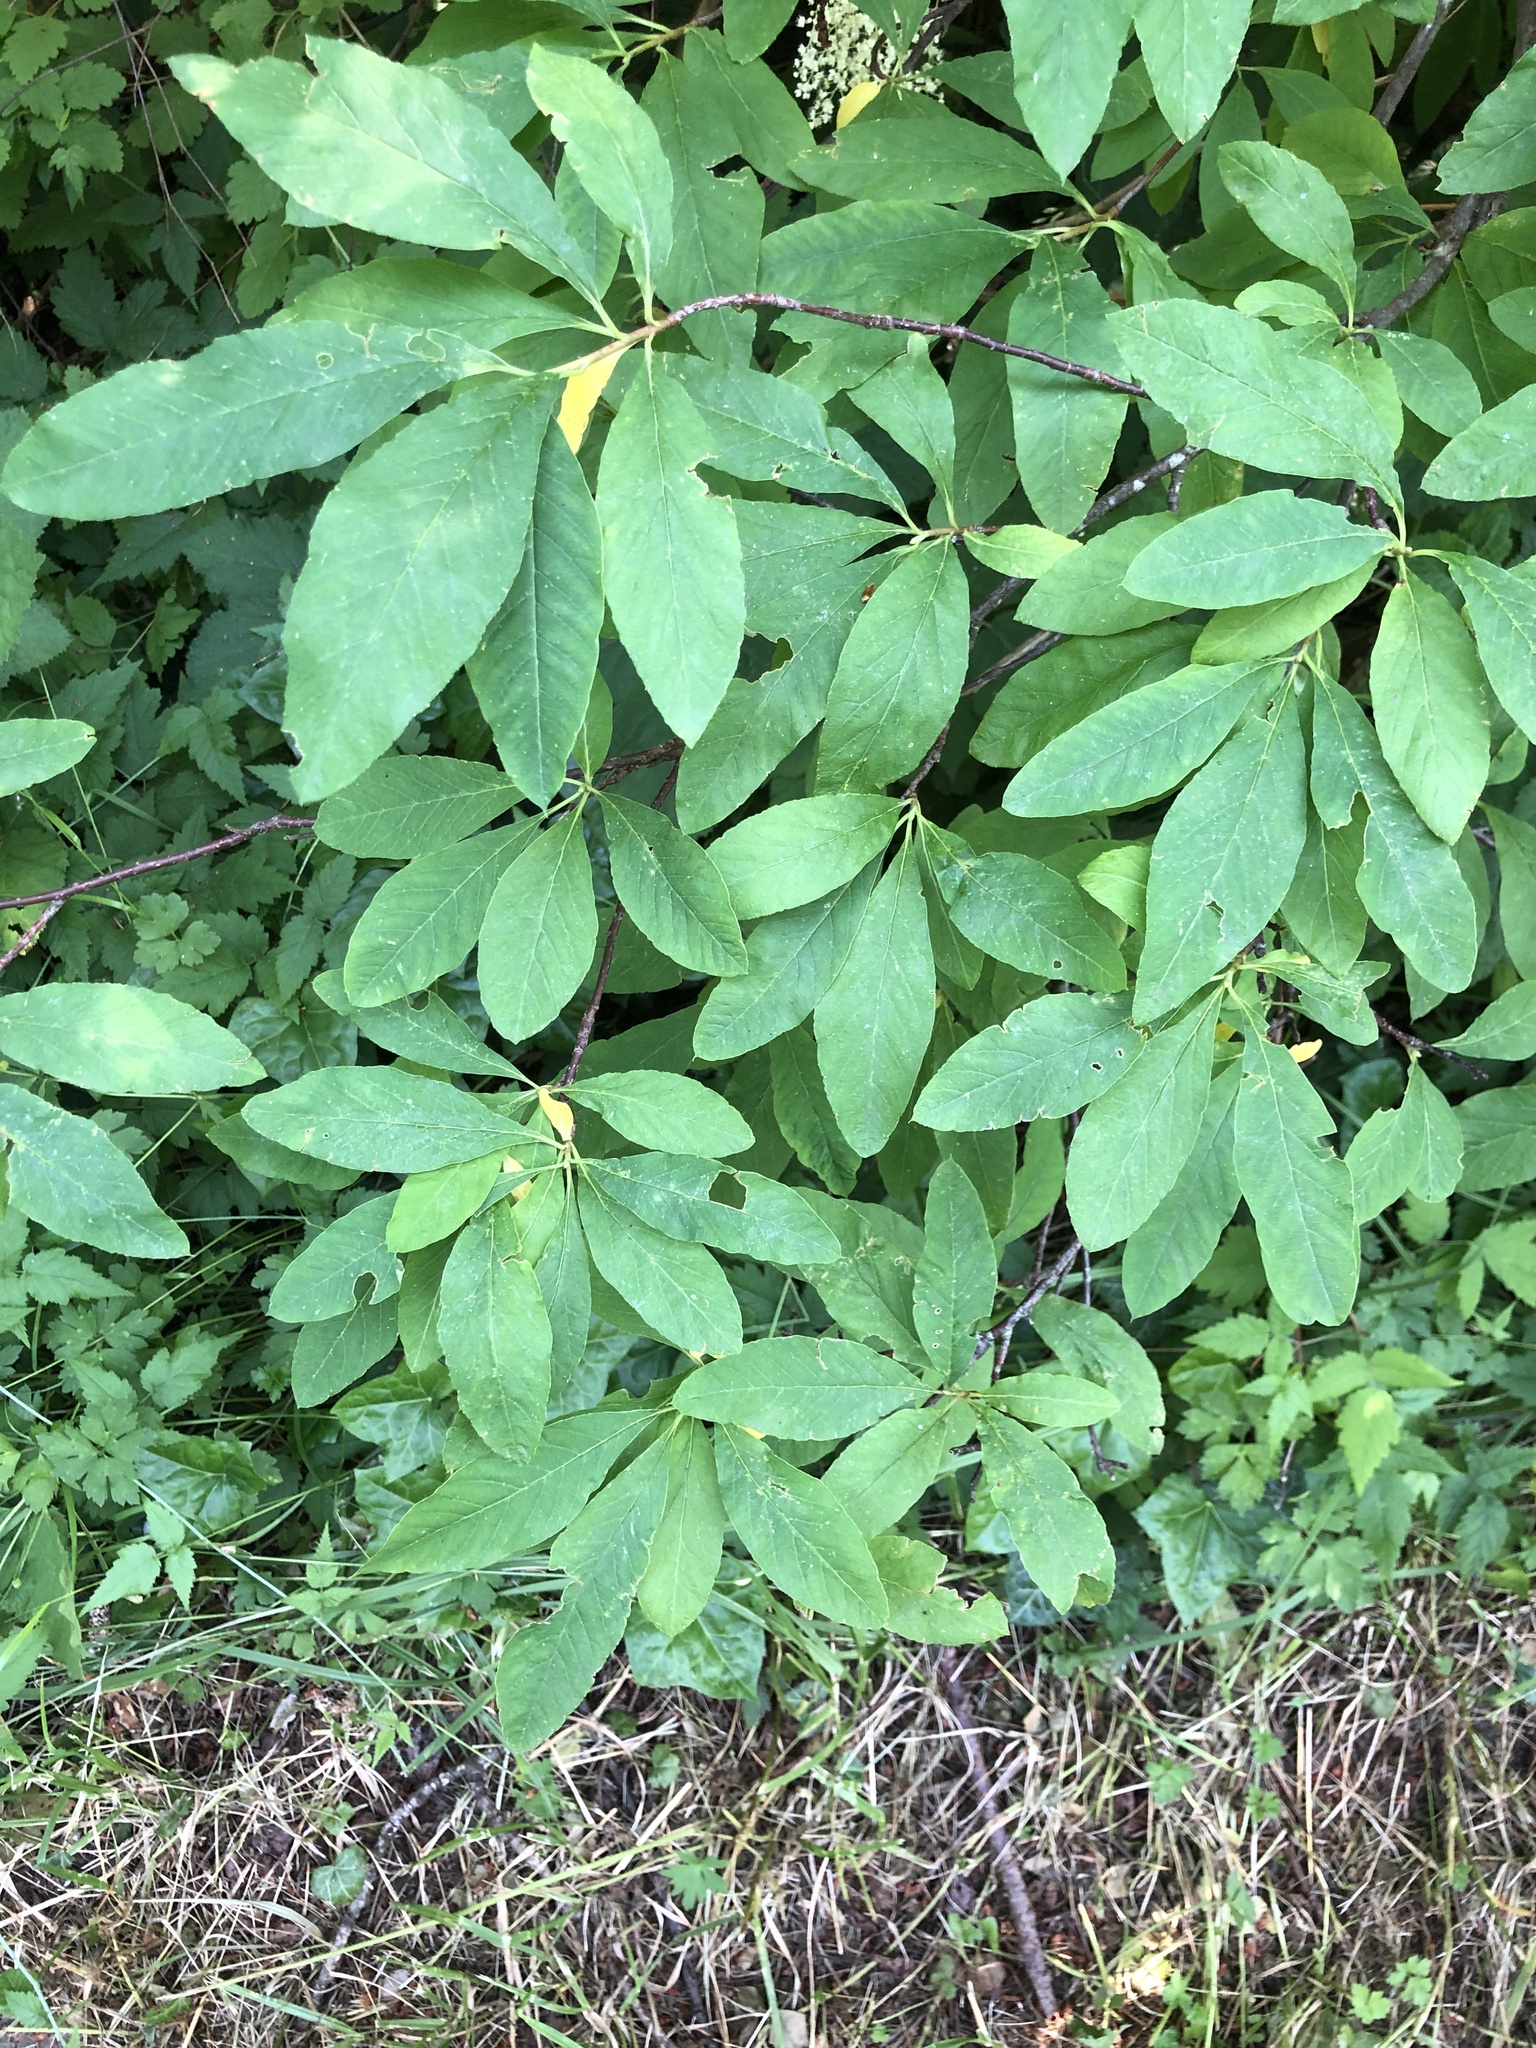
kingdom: Plantae
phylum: Tracheophyta
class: Magnoliopsida
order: Rosales
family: Rosaceae
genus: Oemleria
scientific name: Oemleria cerasiformis
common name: Osoberry
